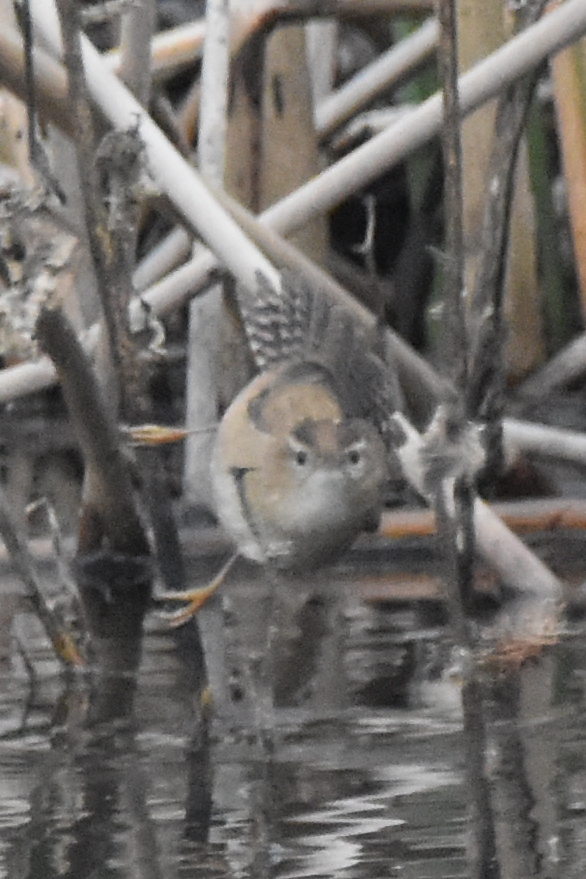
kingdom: Animalia
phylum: Chordata
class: Aves
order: Passeriformes
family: Troglodytidae
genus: Cistothorus
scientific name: Cistothorus palustris
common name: Marsh wren
